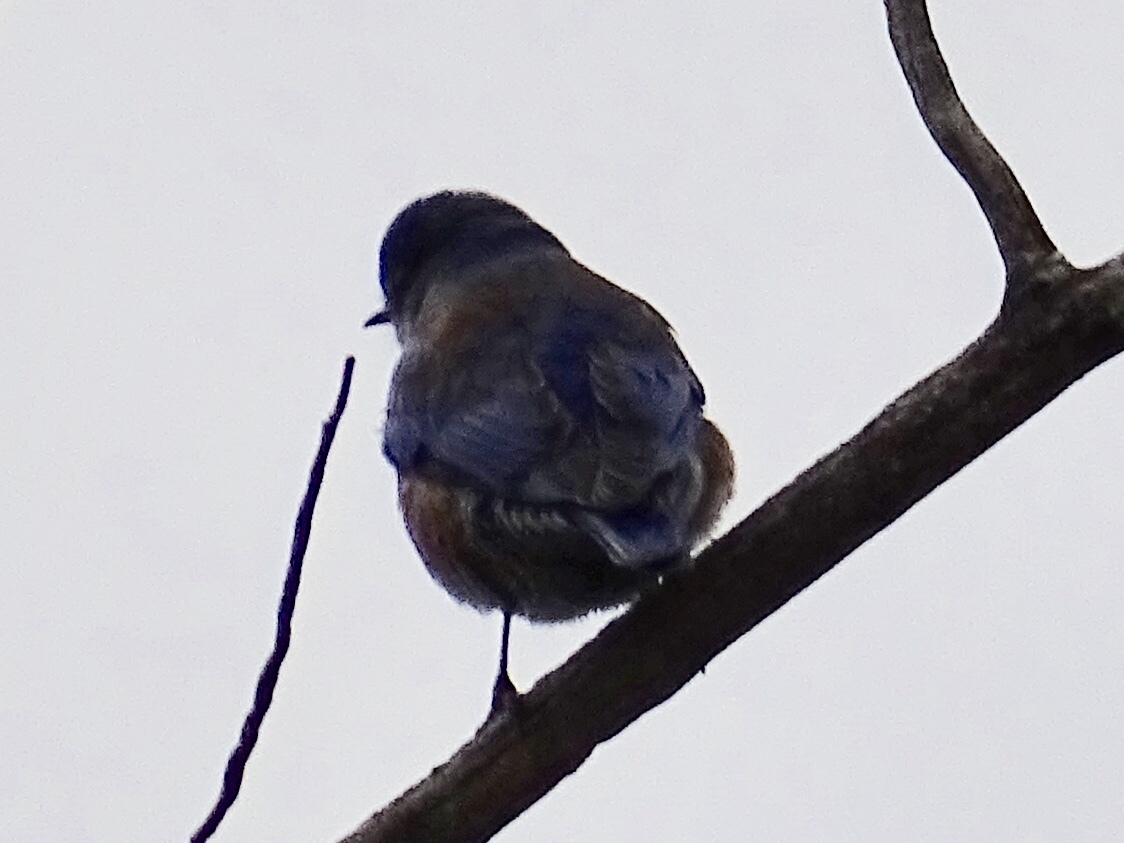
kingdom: Animalia
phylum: Chordata
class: Aves
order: Passeriformes
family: Turdidae
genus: Sialia
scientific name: Sialia mexicana
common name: Western bluebird
